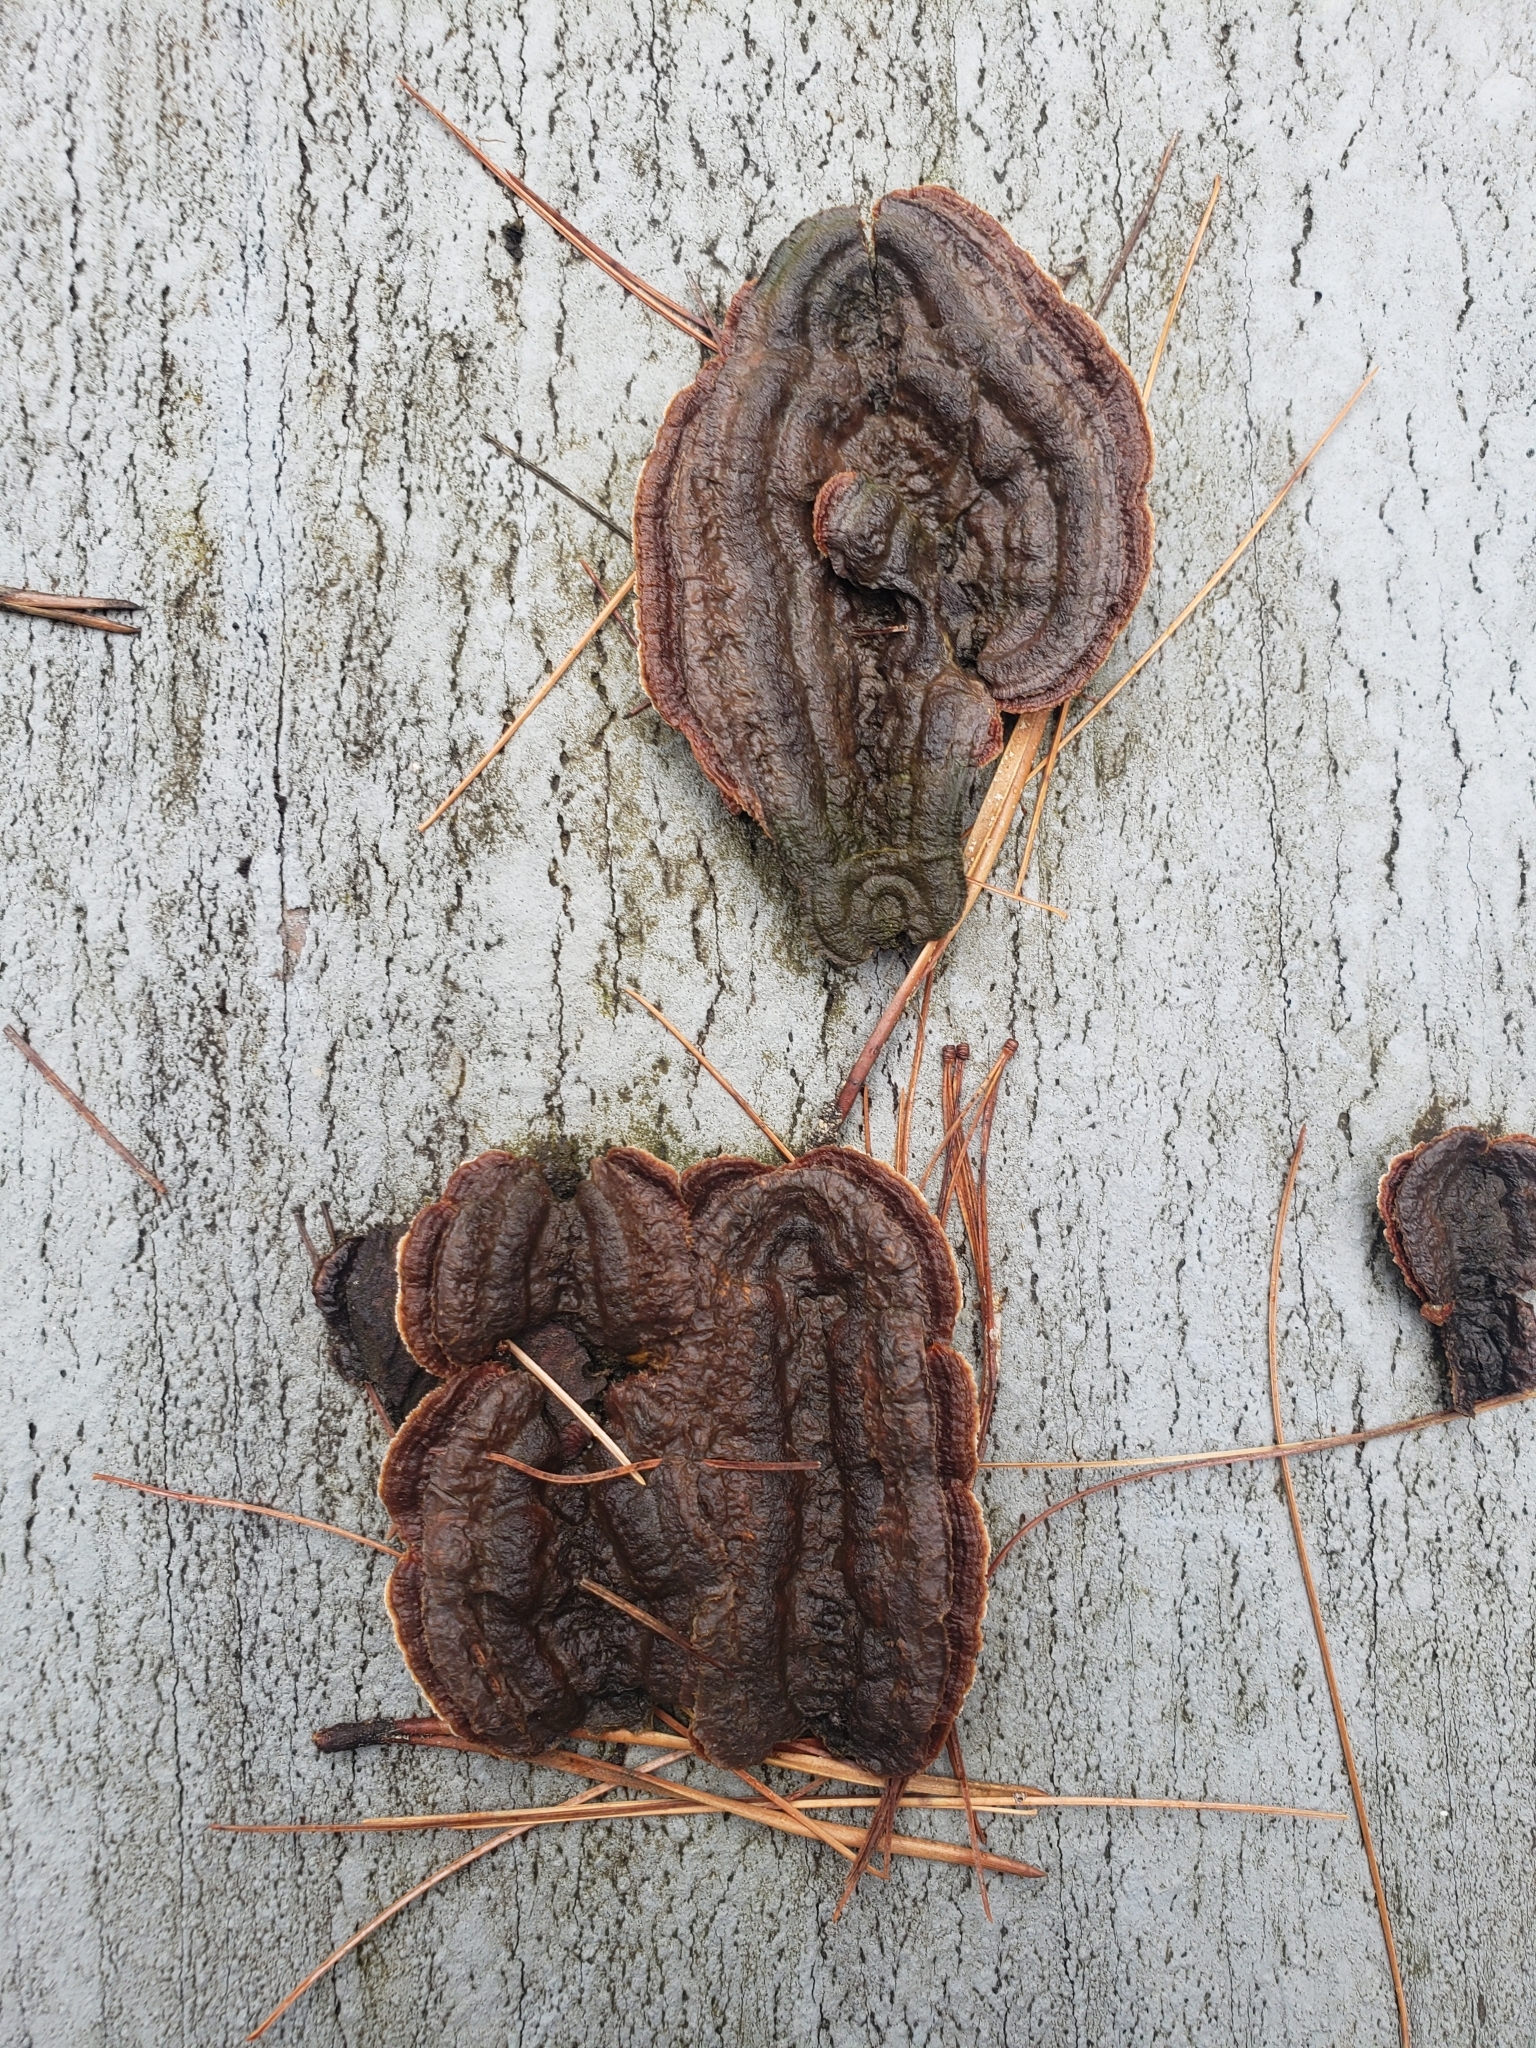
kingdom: Fungi
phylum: Basidiomycota
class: Agaricomycetes
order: Gloeophyllales
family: Gloeophyllaceae
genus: Gloeophyllum
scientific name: Gloeophyllum sepiarium
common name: Conifer mazegill
